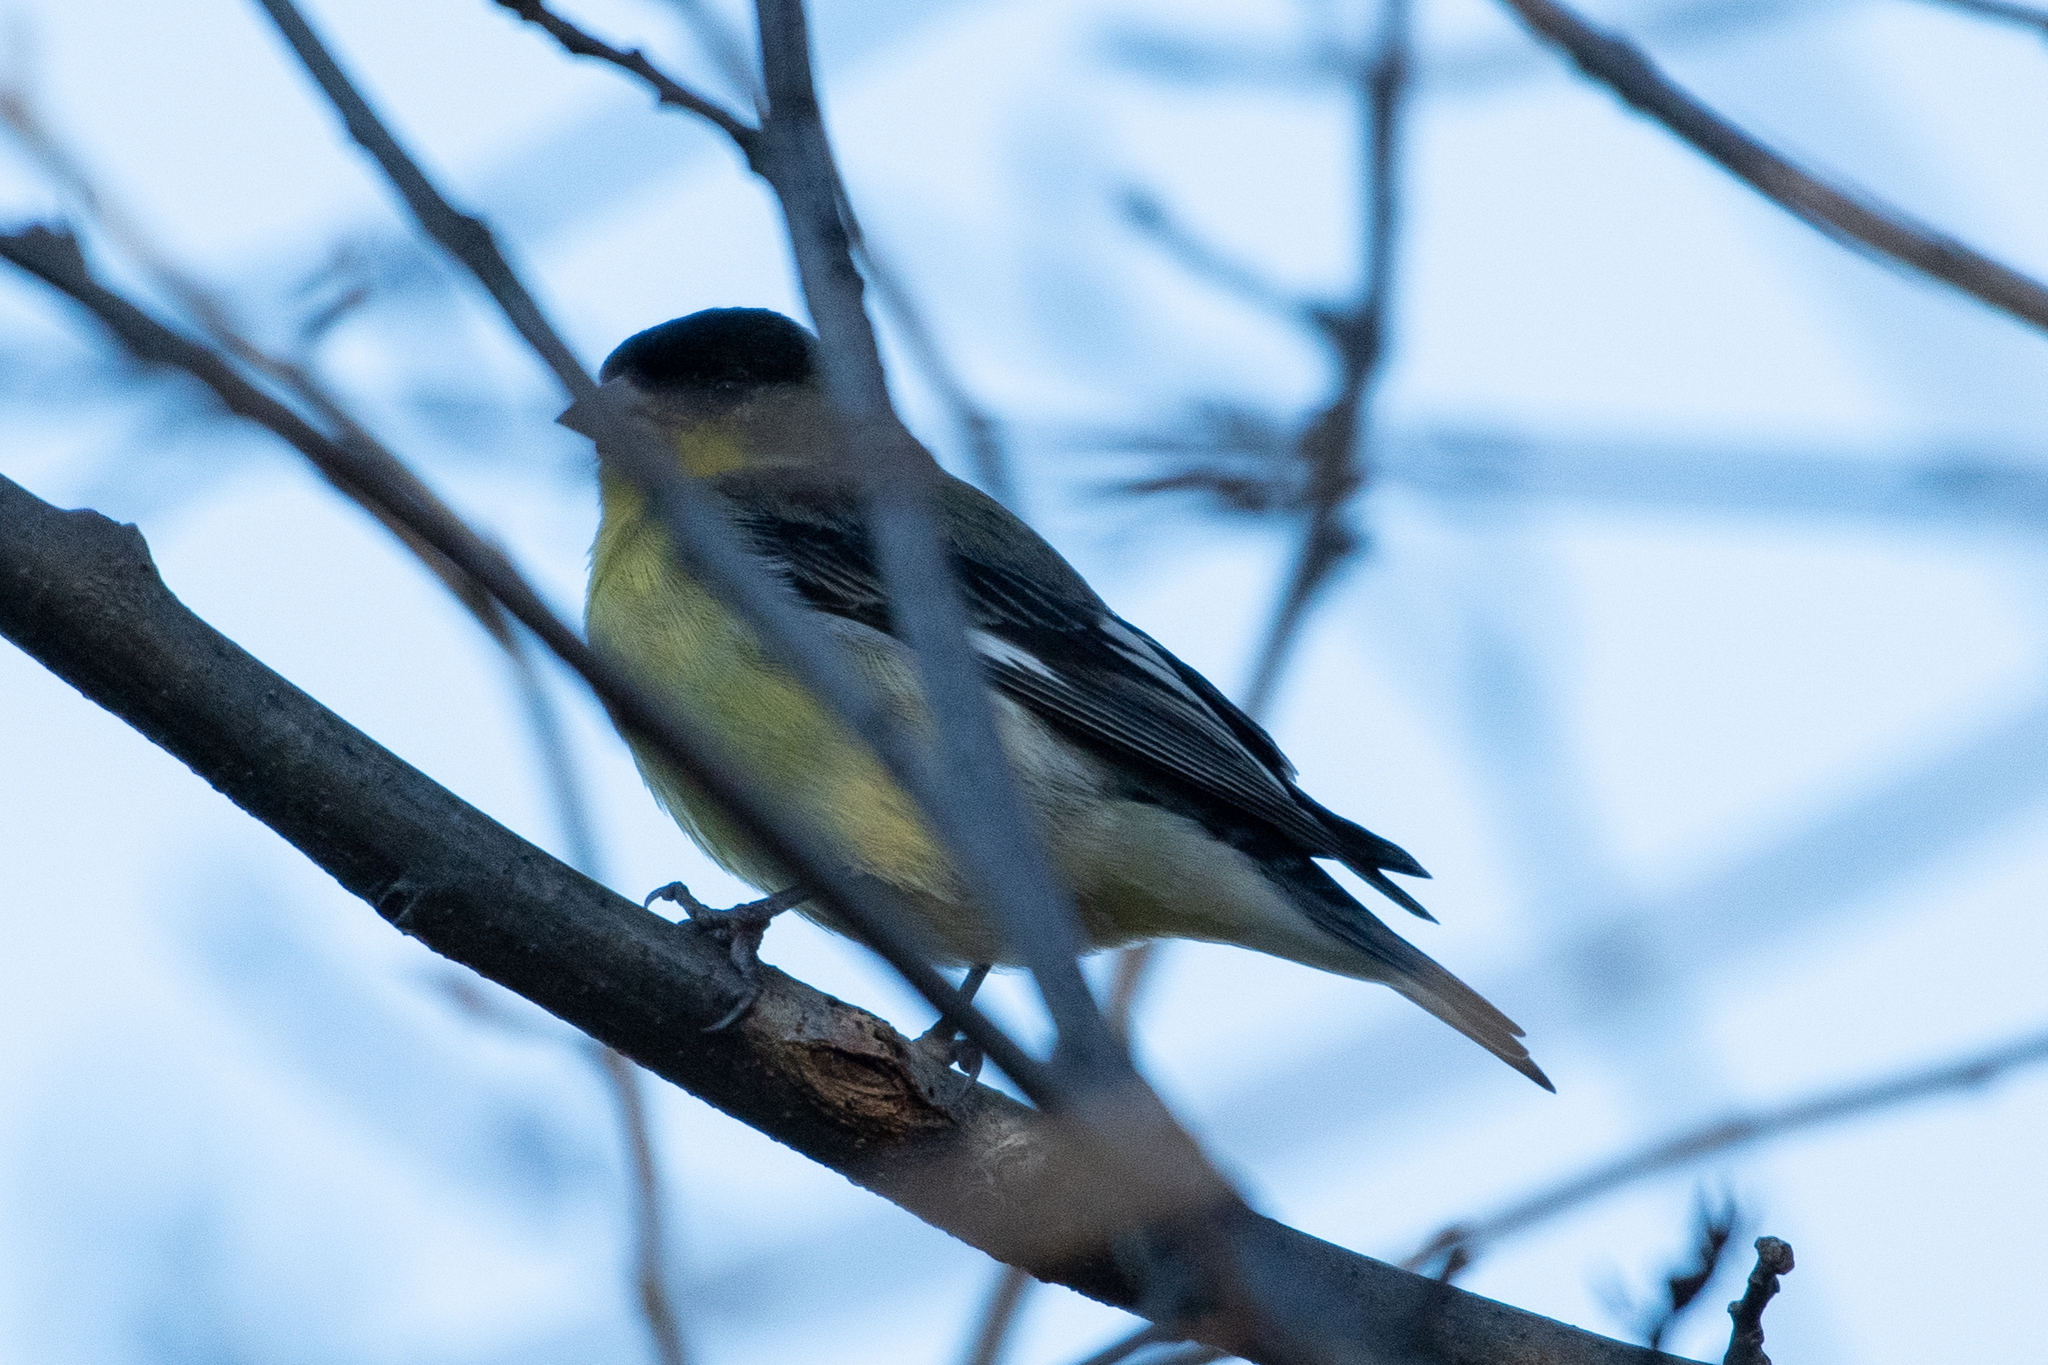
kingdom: Animalia
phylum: Chordata
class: Aves
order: Passeriformes
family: Fringillidae
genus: Spinus
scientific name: Spinus psaltria
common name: Lesser goldfinch
